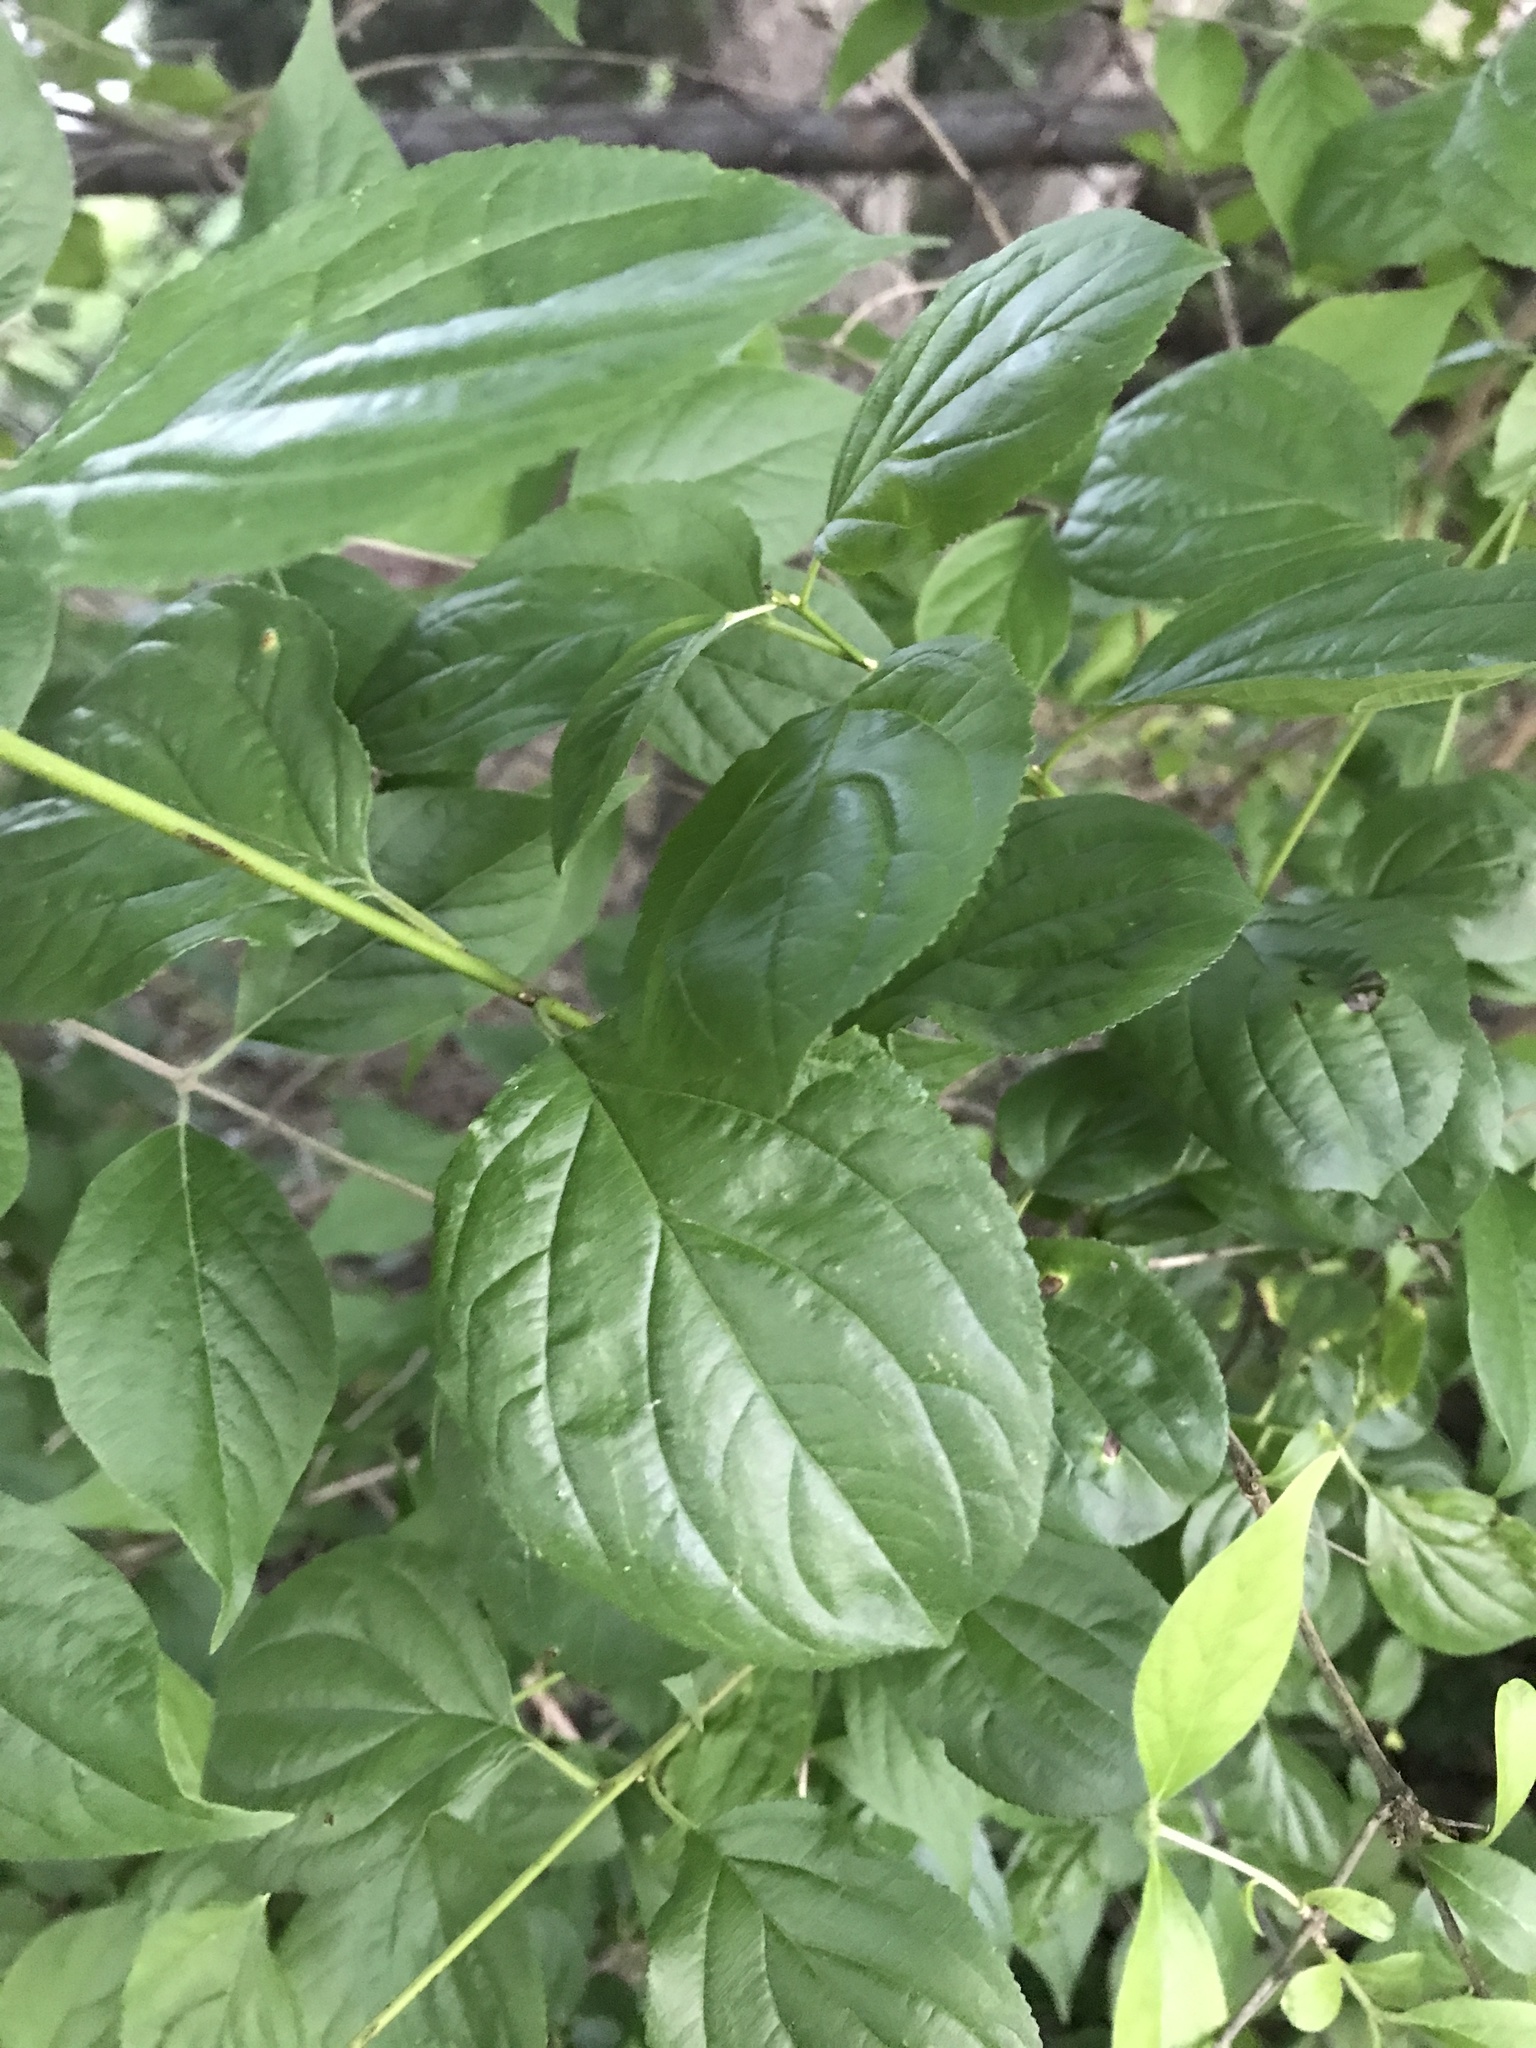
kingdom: Plantae
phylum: Tracheophyta
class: Magnoliopsida
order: Rosales
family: Rhamnaceae
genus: Rhamnus
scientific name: Rhamnus cathartica
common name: Common buckthorn
